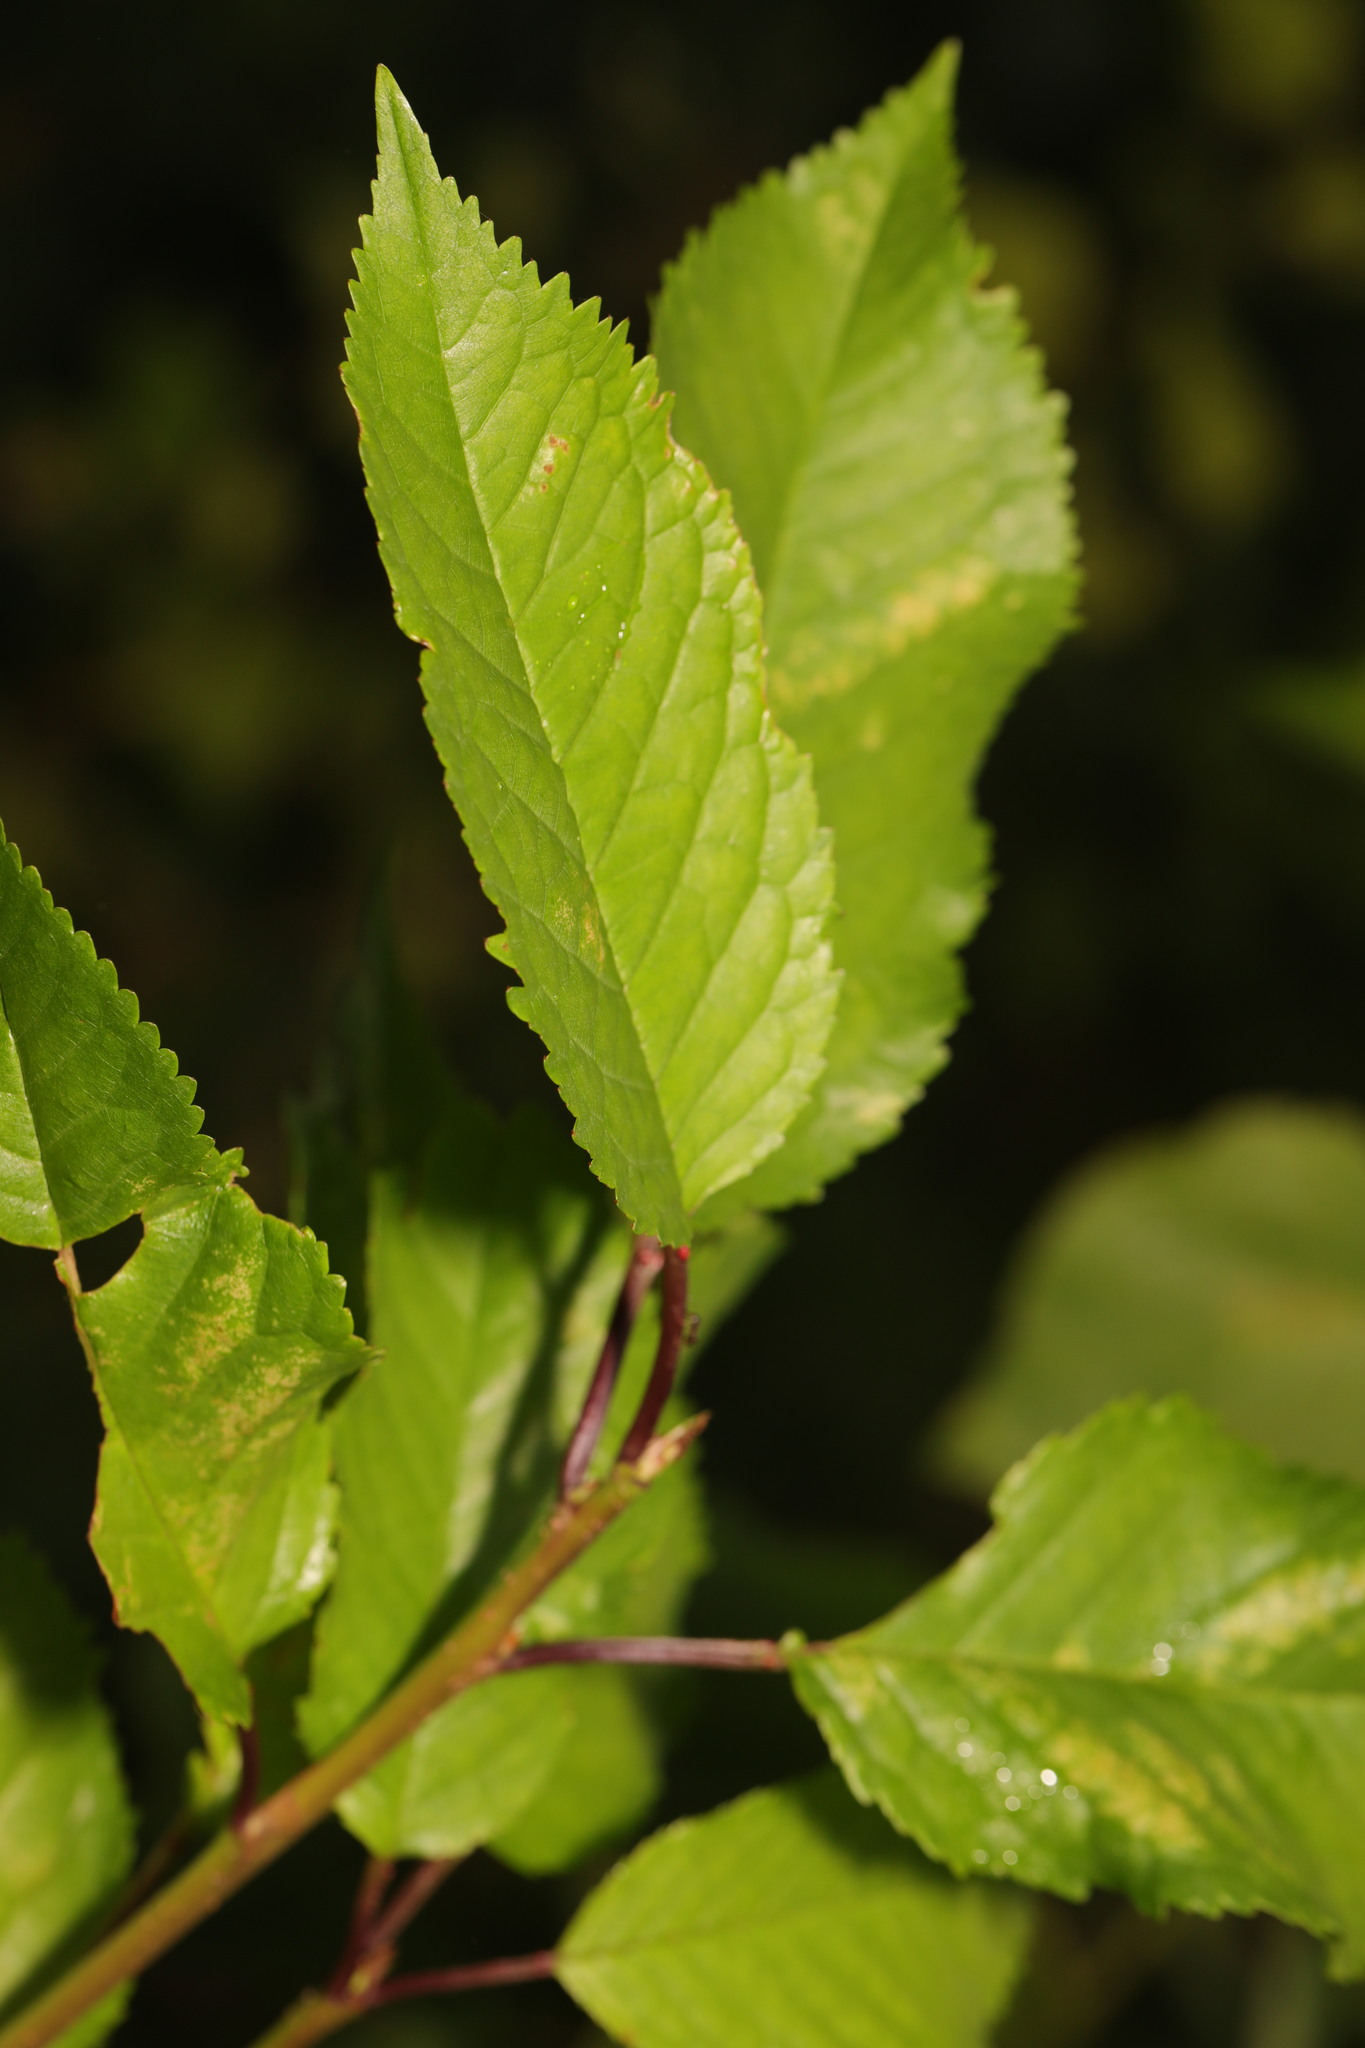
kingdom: Plantae
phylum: Tracheophyta
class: Magnoliopsida
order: Rosales
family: Rosaceae
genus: Prunus
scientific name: Prunus avium
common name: Sweet cherry
